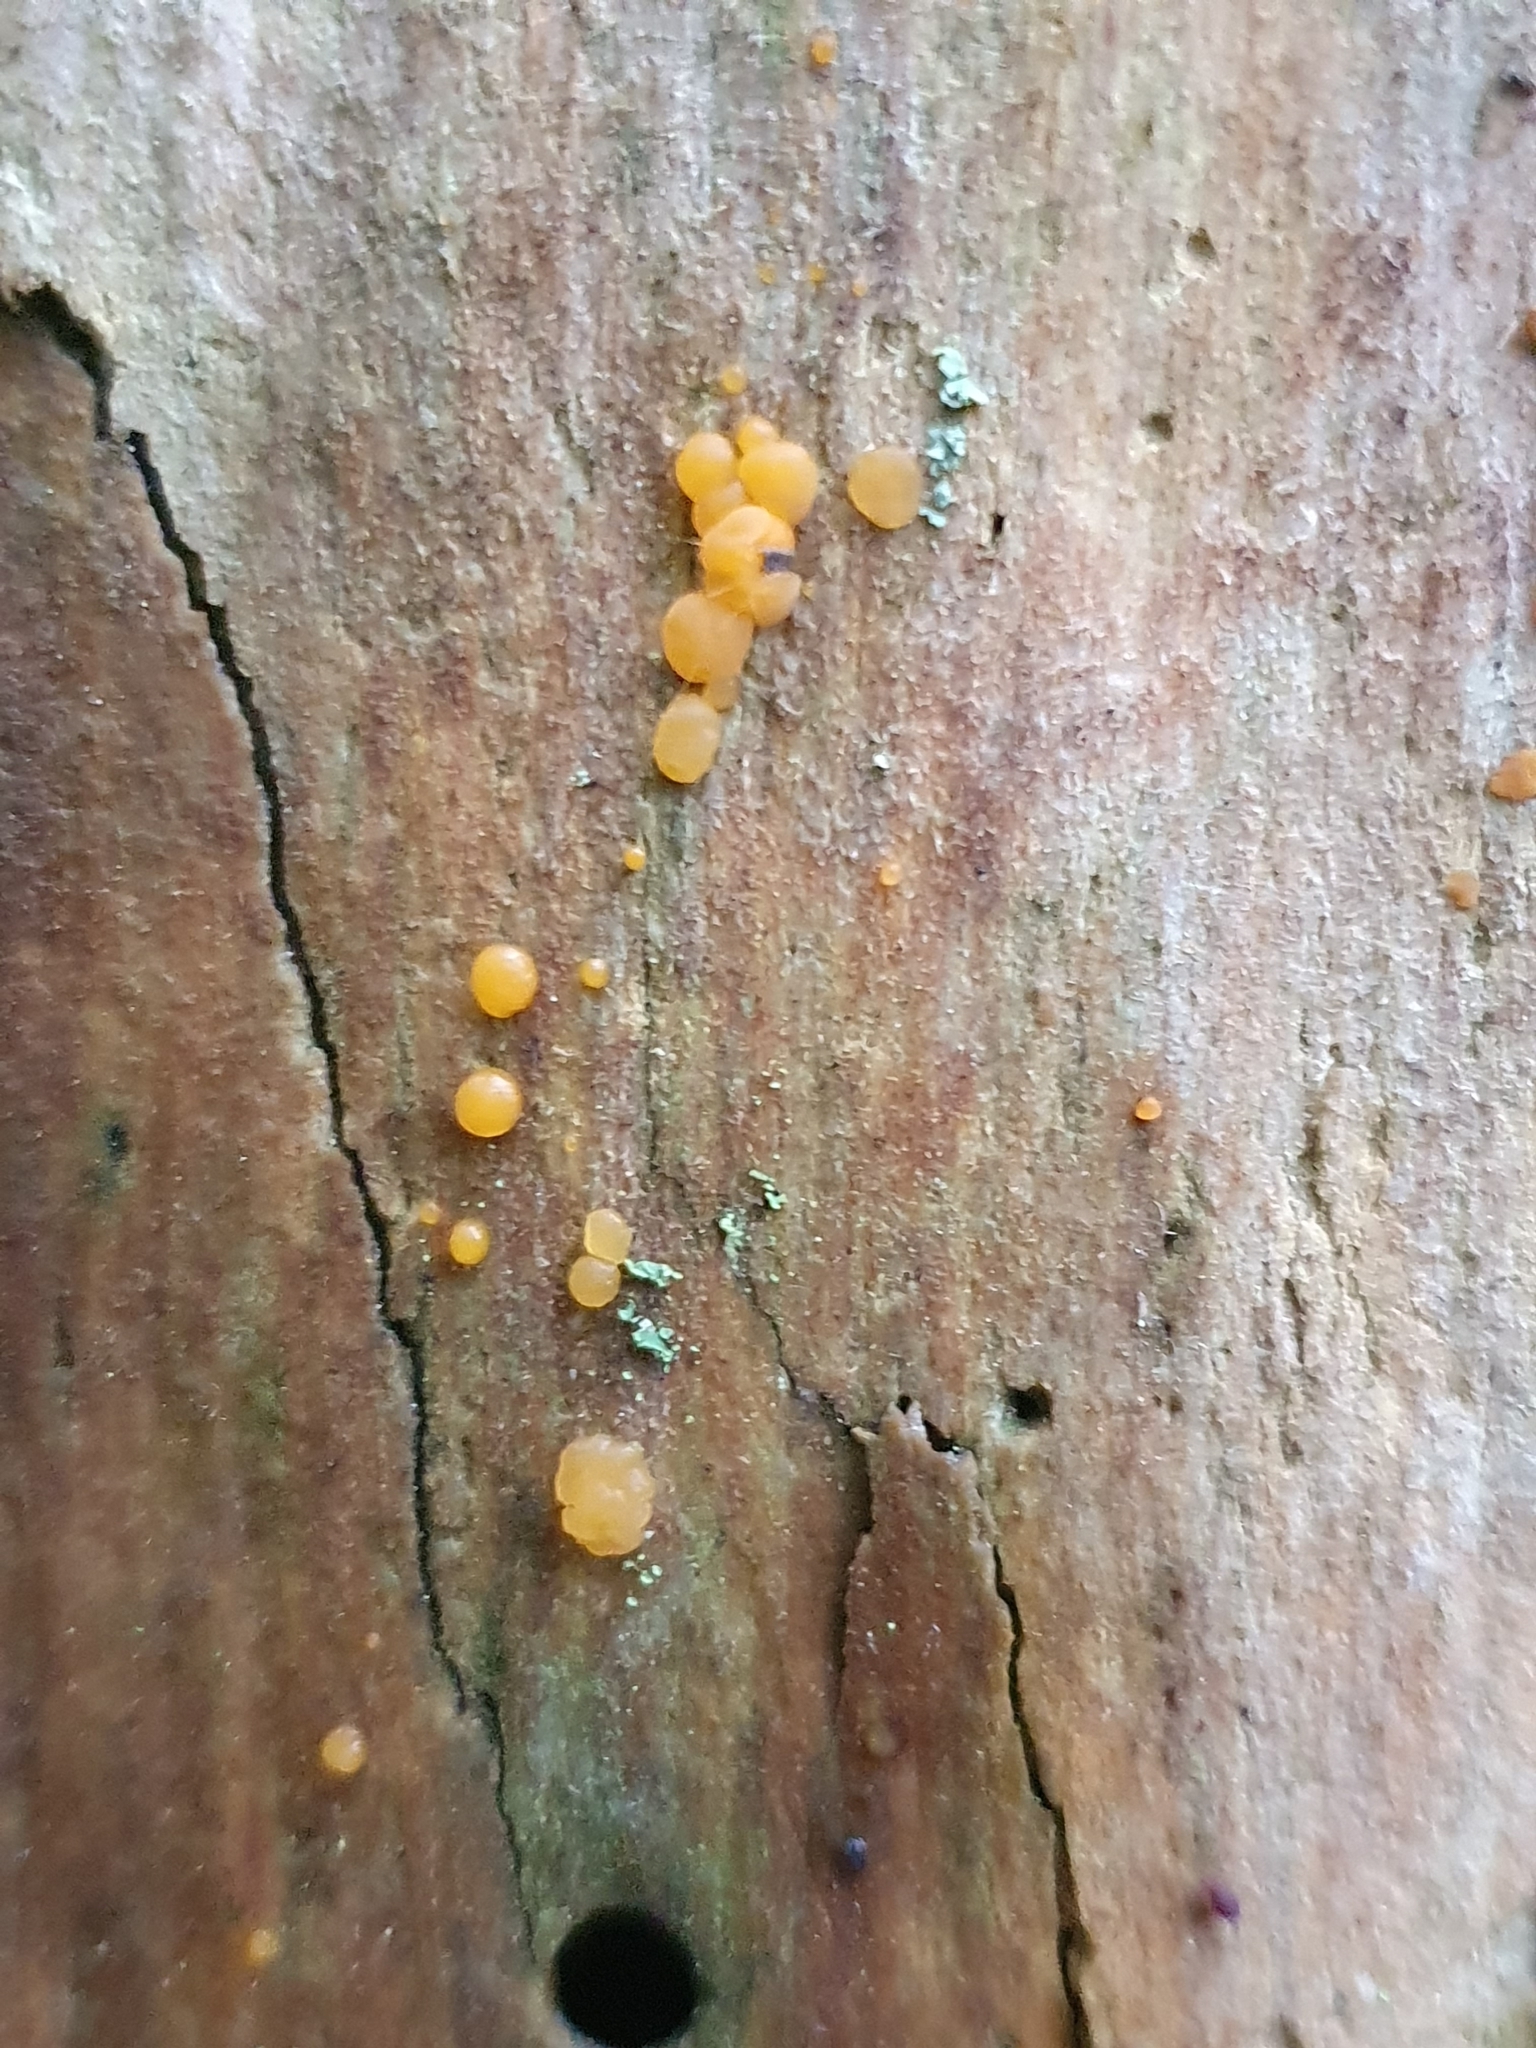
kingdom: Fungi
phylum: Basidiomycota
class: Dacrymycetes
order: Dacrymycetales
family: Dacrymycetaceae
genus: Dacrymyces
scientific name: Dacrymyces stillatus
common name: Common jelly spot
